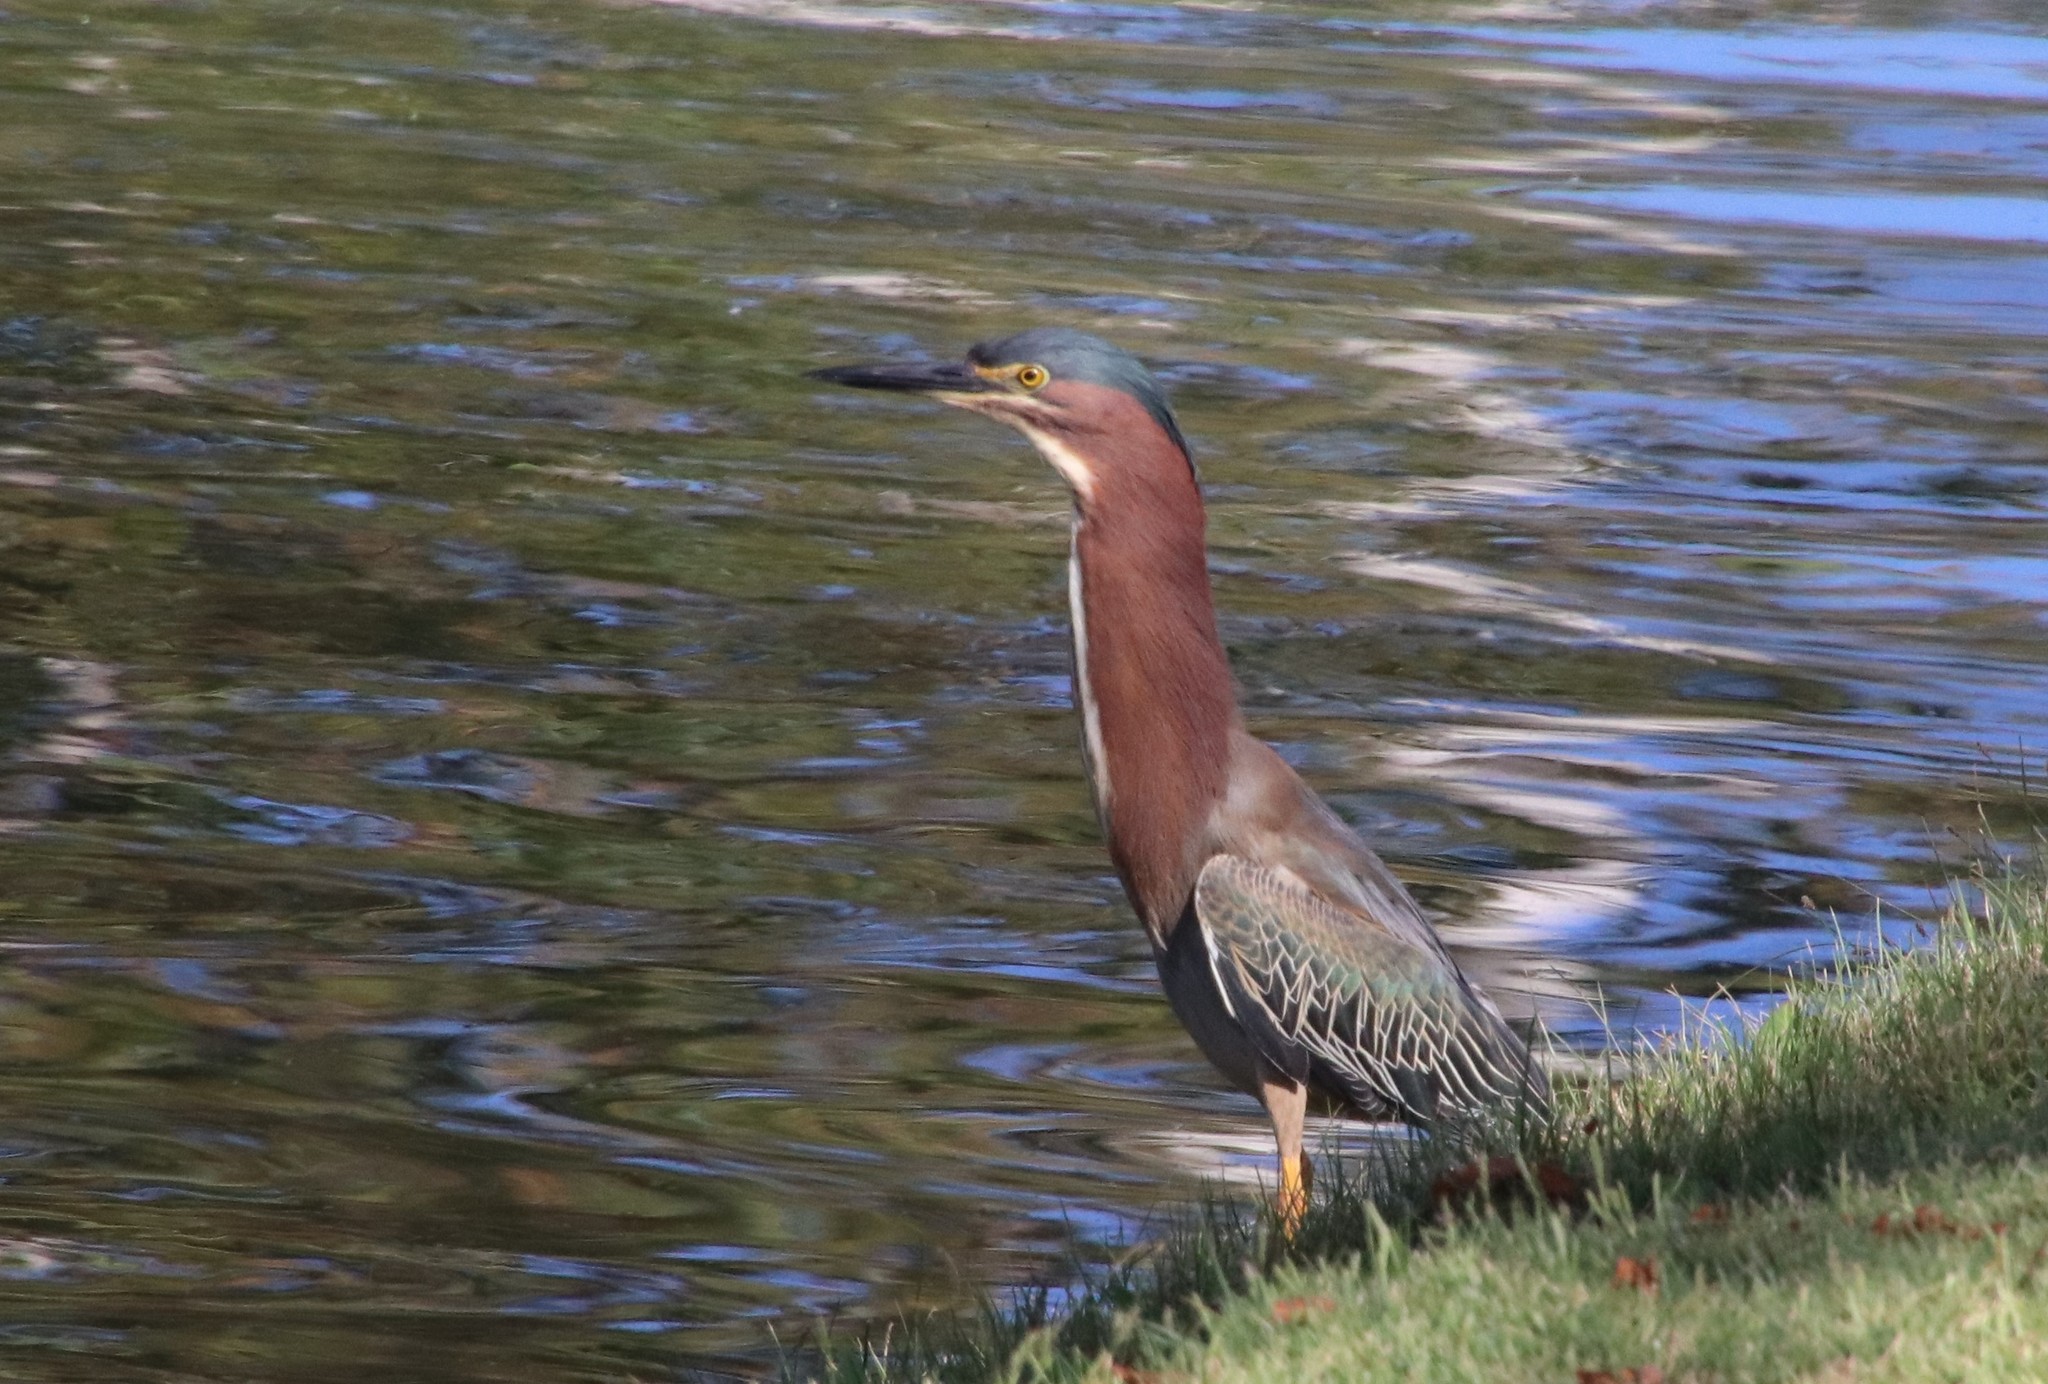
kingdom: Animalia
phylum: Chordata
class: Aves
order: Pelecaniformes
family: Ardeidae
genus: Butorides
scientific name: Butorides virescens
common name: Green heron
